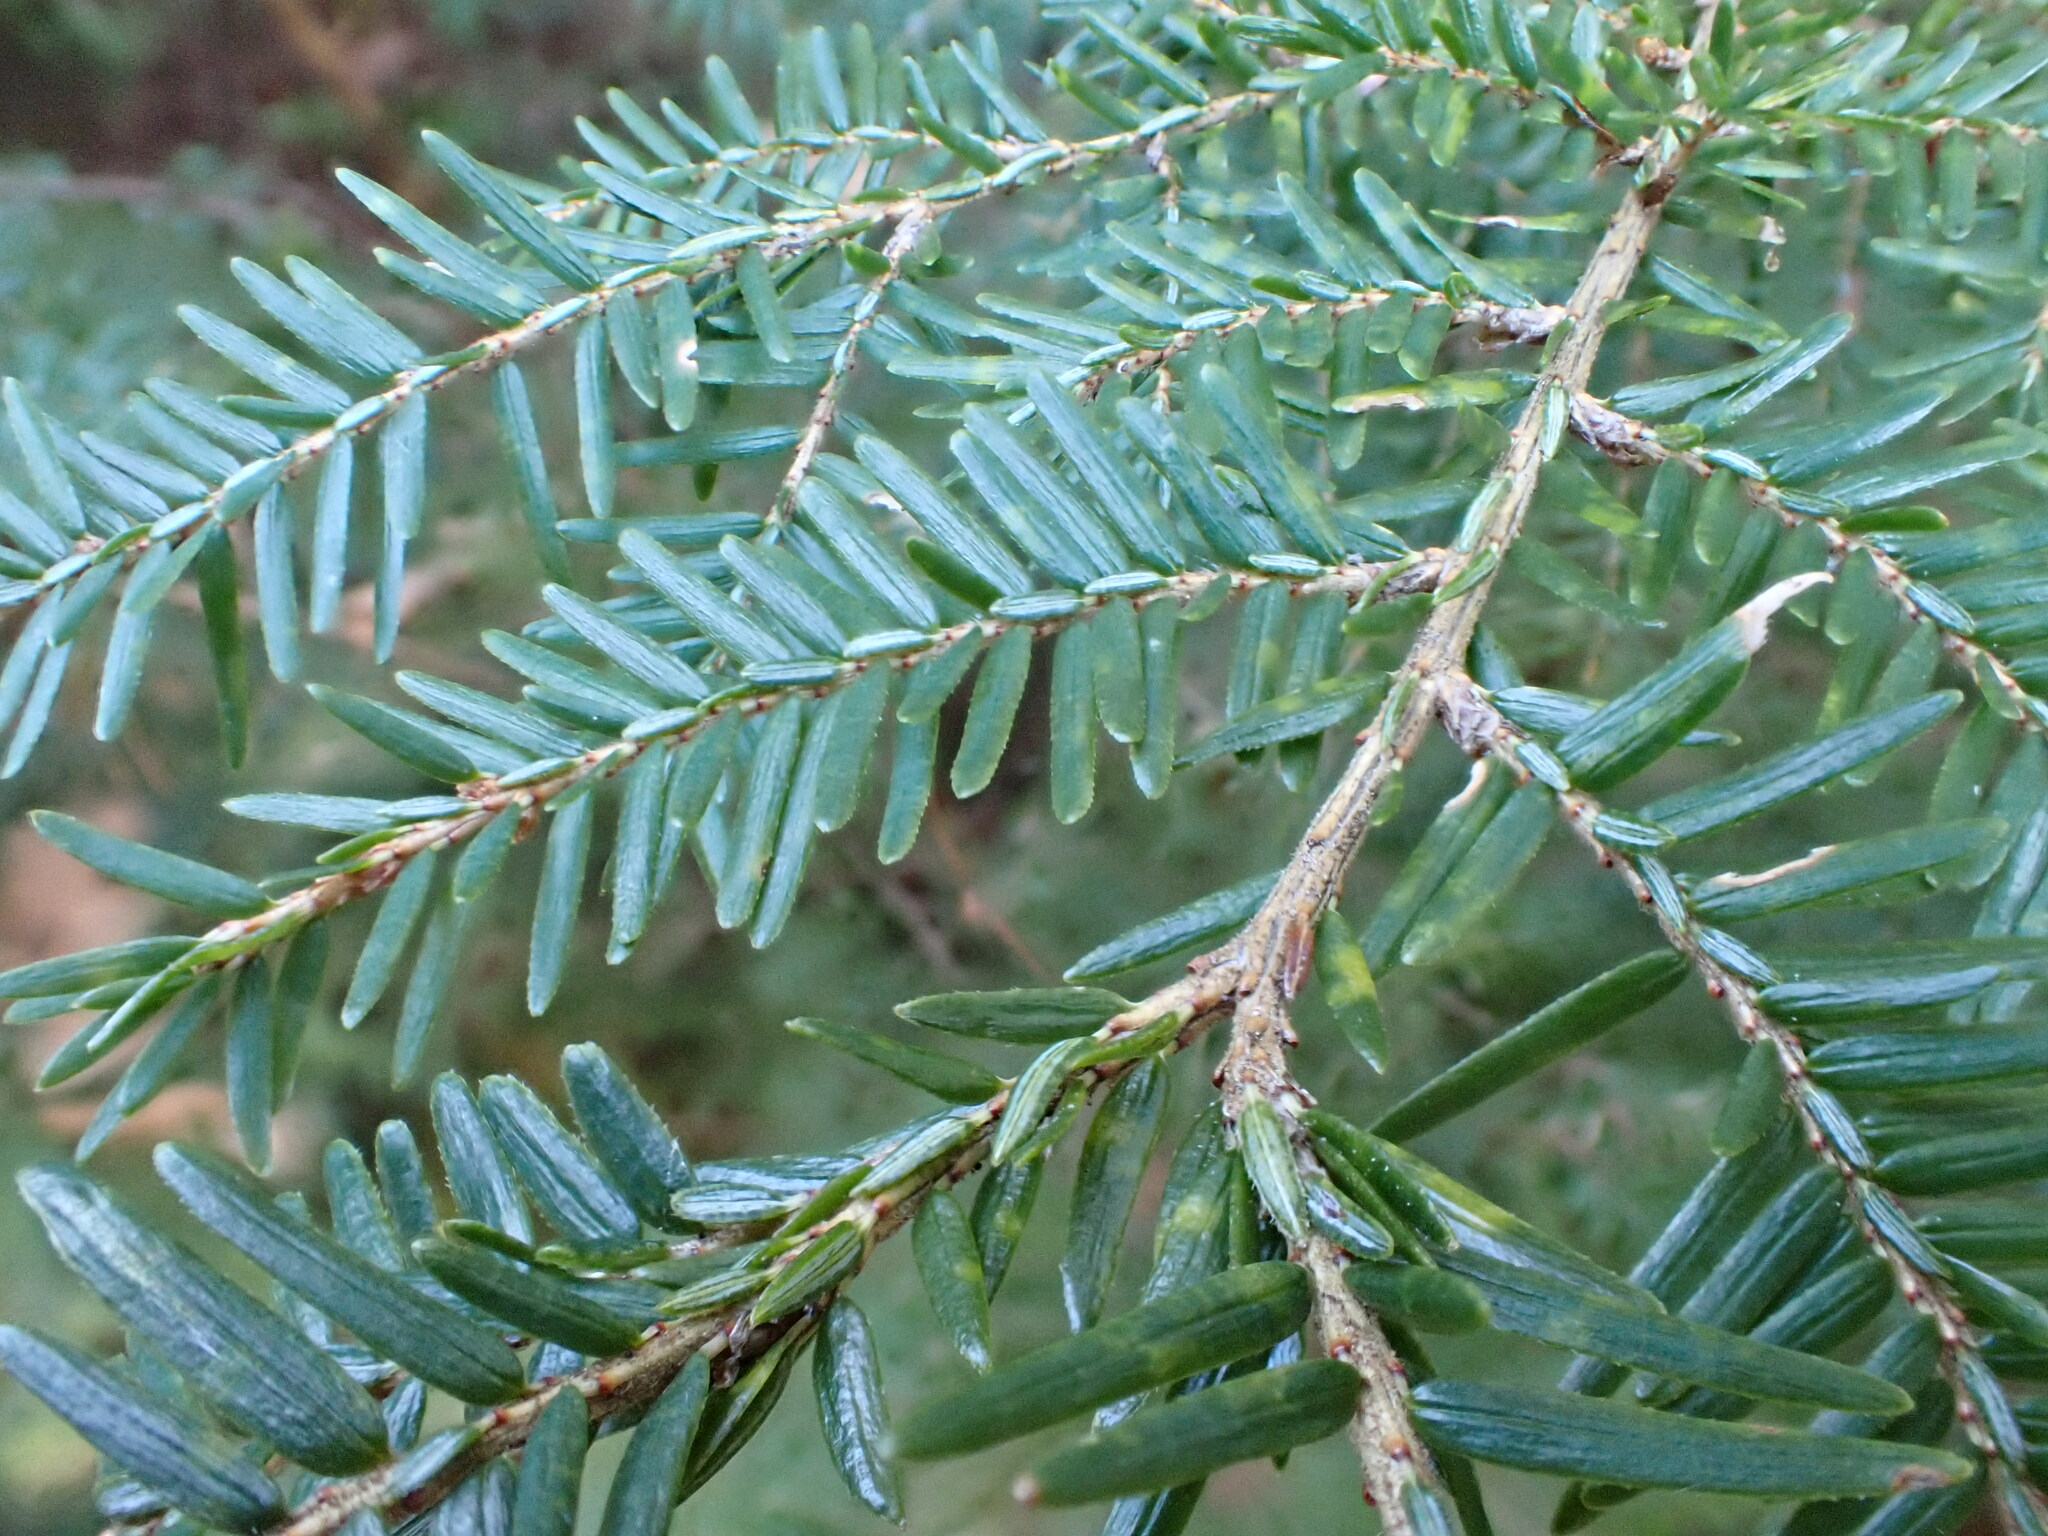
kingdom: Plantae
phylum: Tracheophyta
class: Pinopsida
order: Pinales
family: Pinaceae
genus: Tsuga
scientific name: Tsuga canadensis
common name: Eastern hemlock
